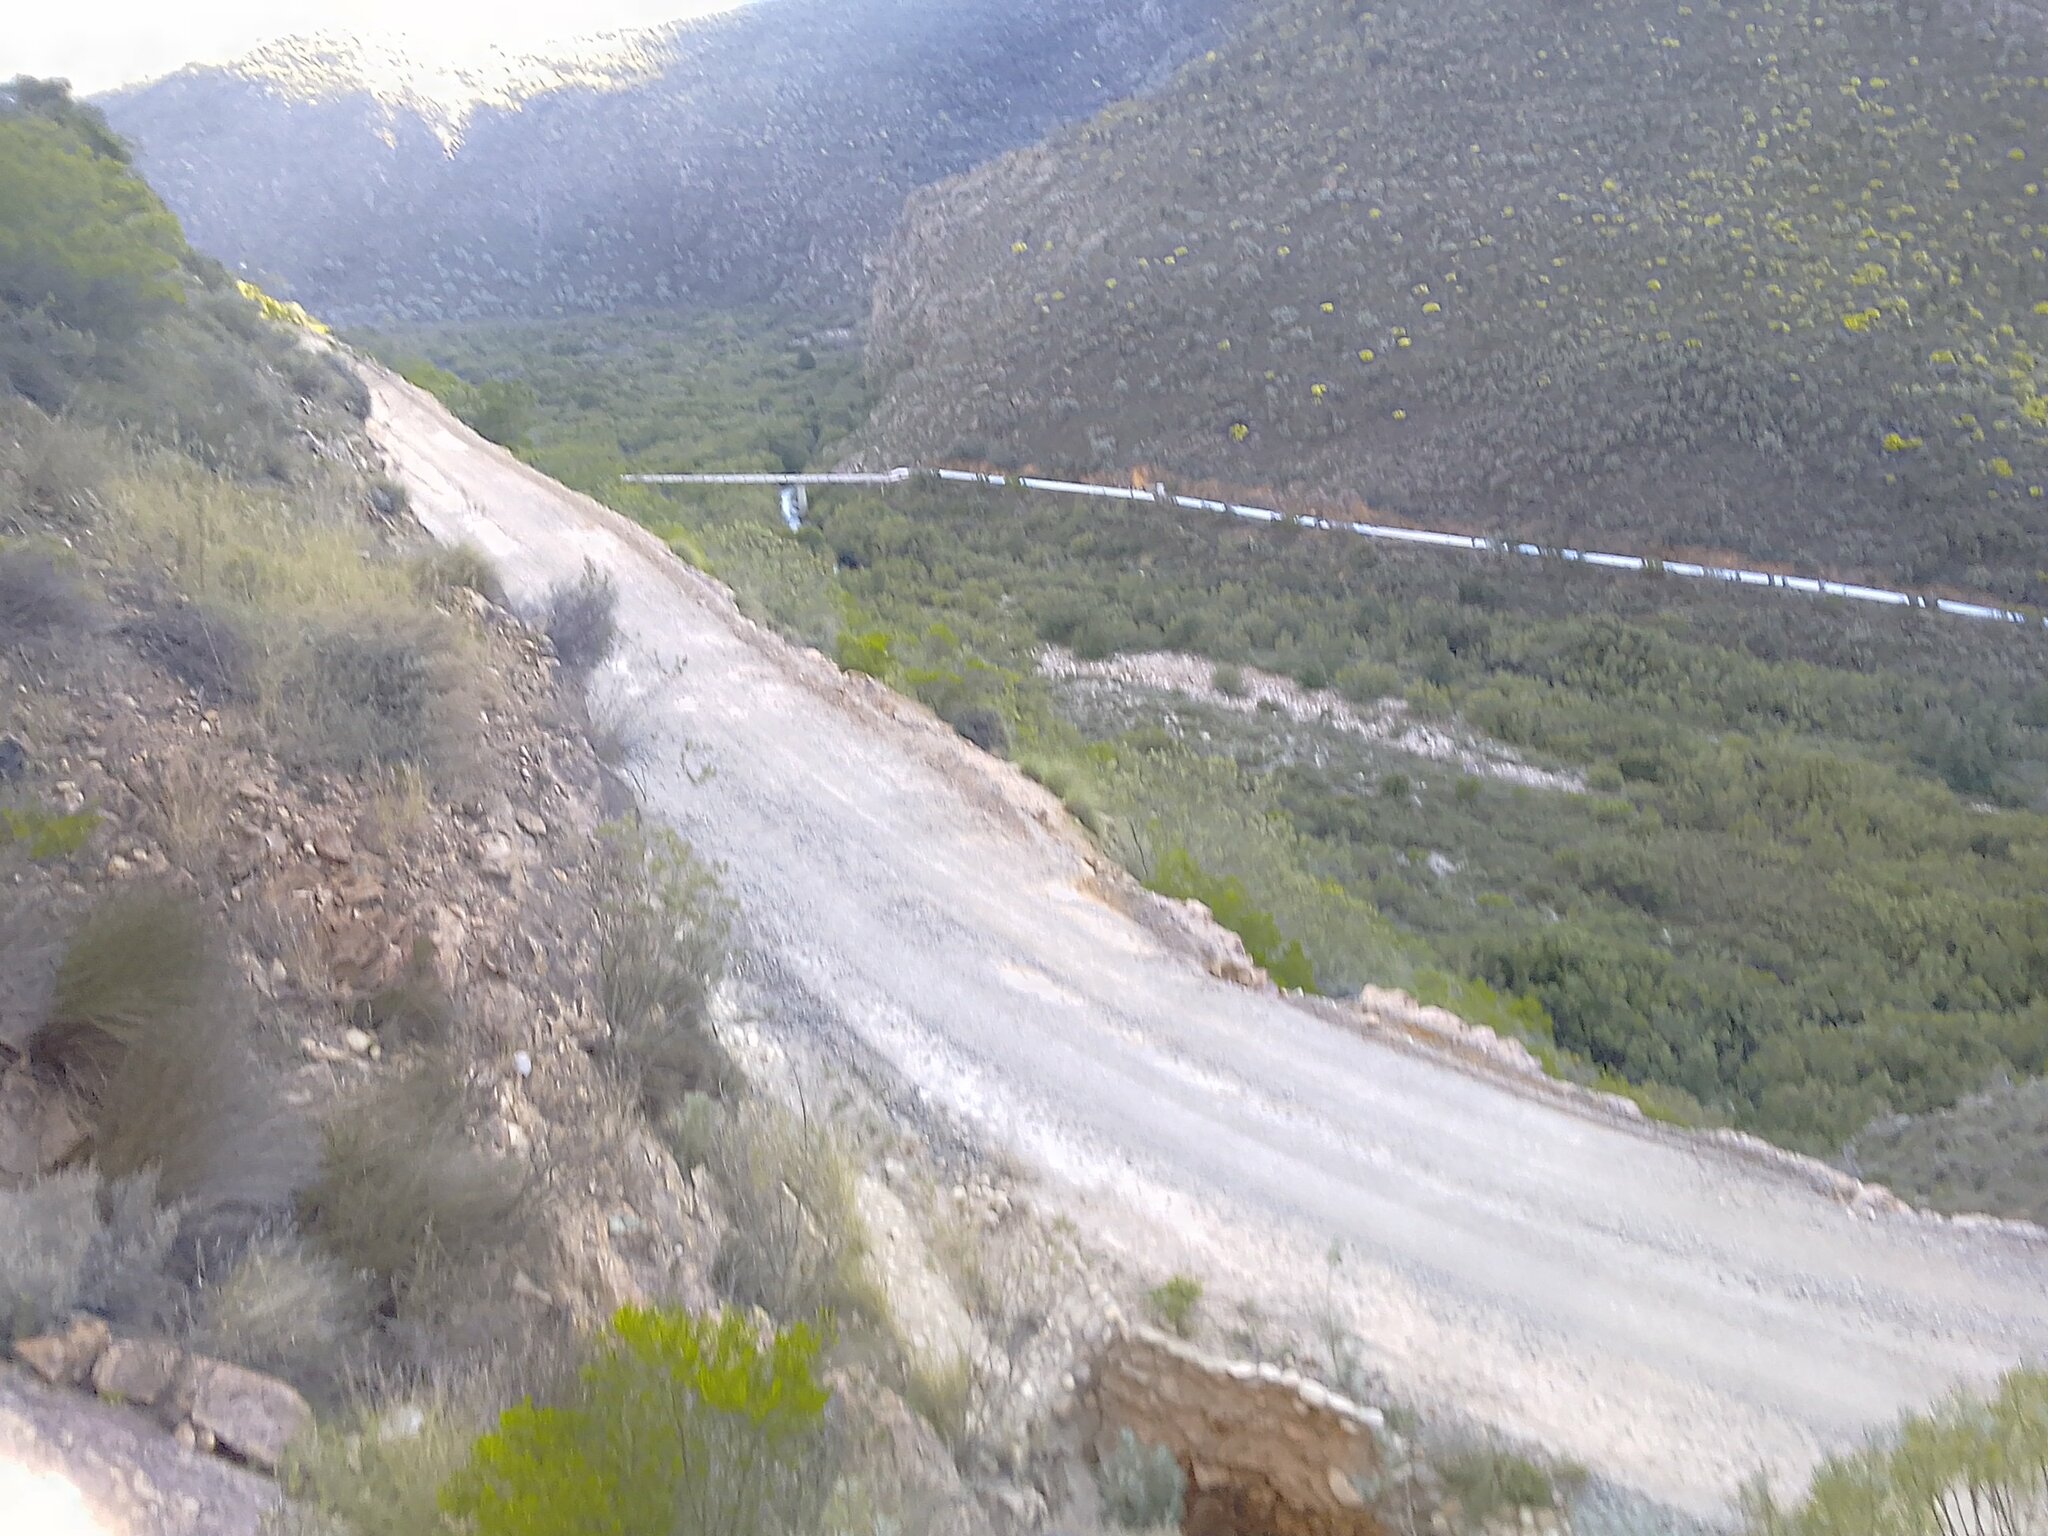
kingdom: Plantae
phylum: Tracheophyta
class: Magnoliopsida
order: Sapindales
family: Sapindaceae
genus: Dodonaea
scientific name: Dodonaea viscosa
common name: Hopbush
